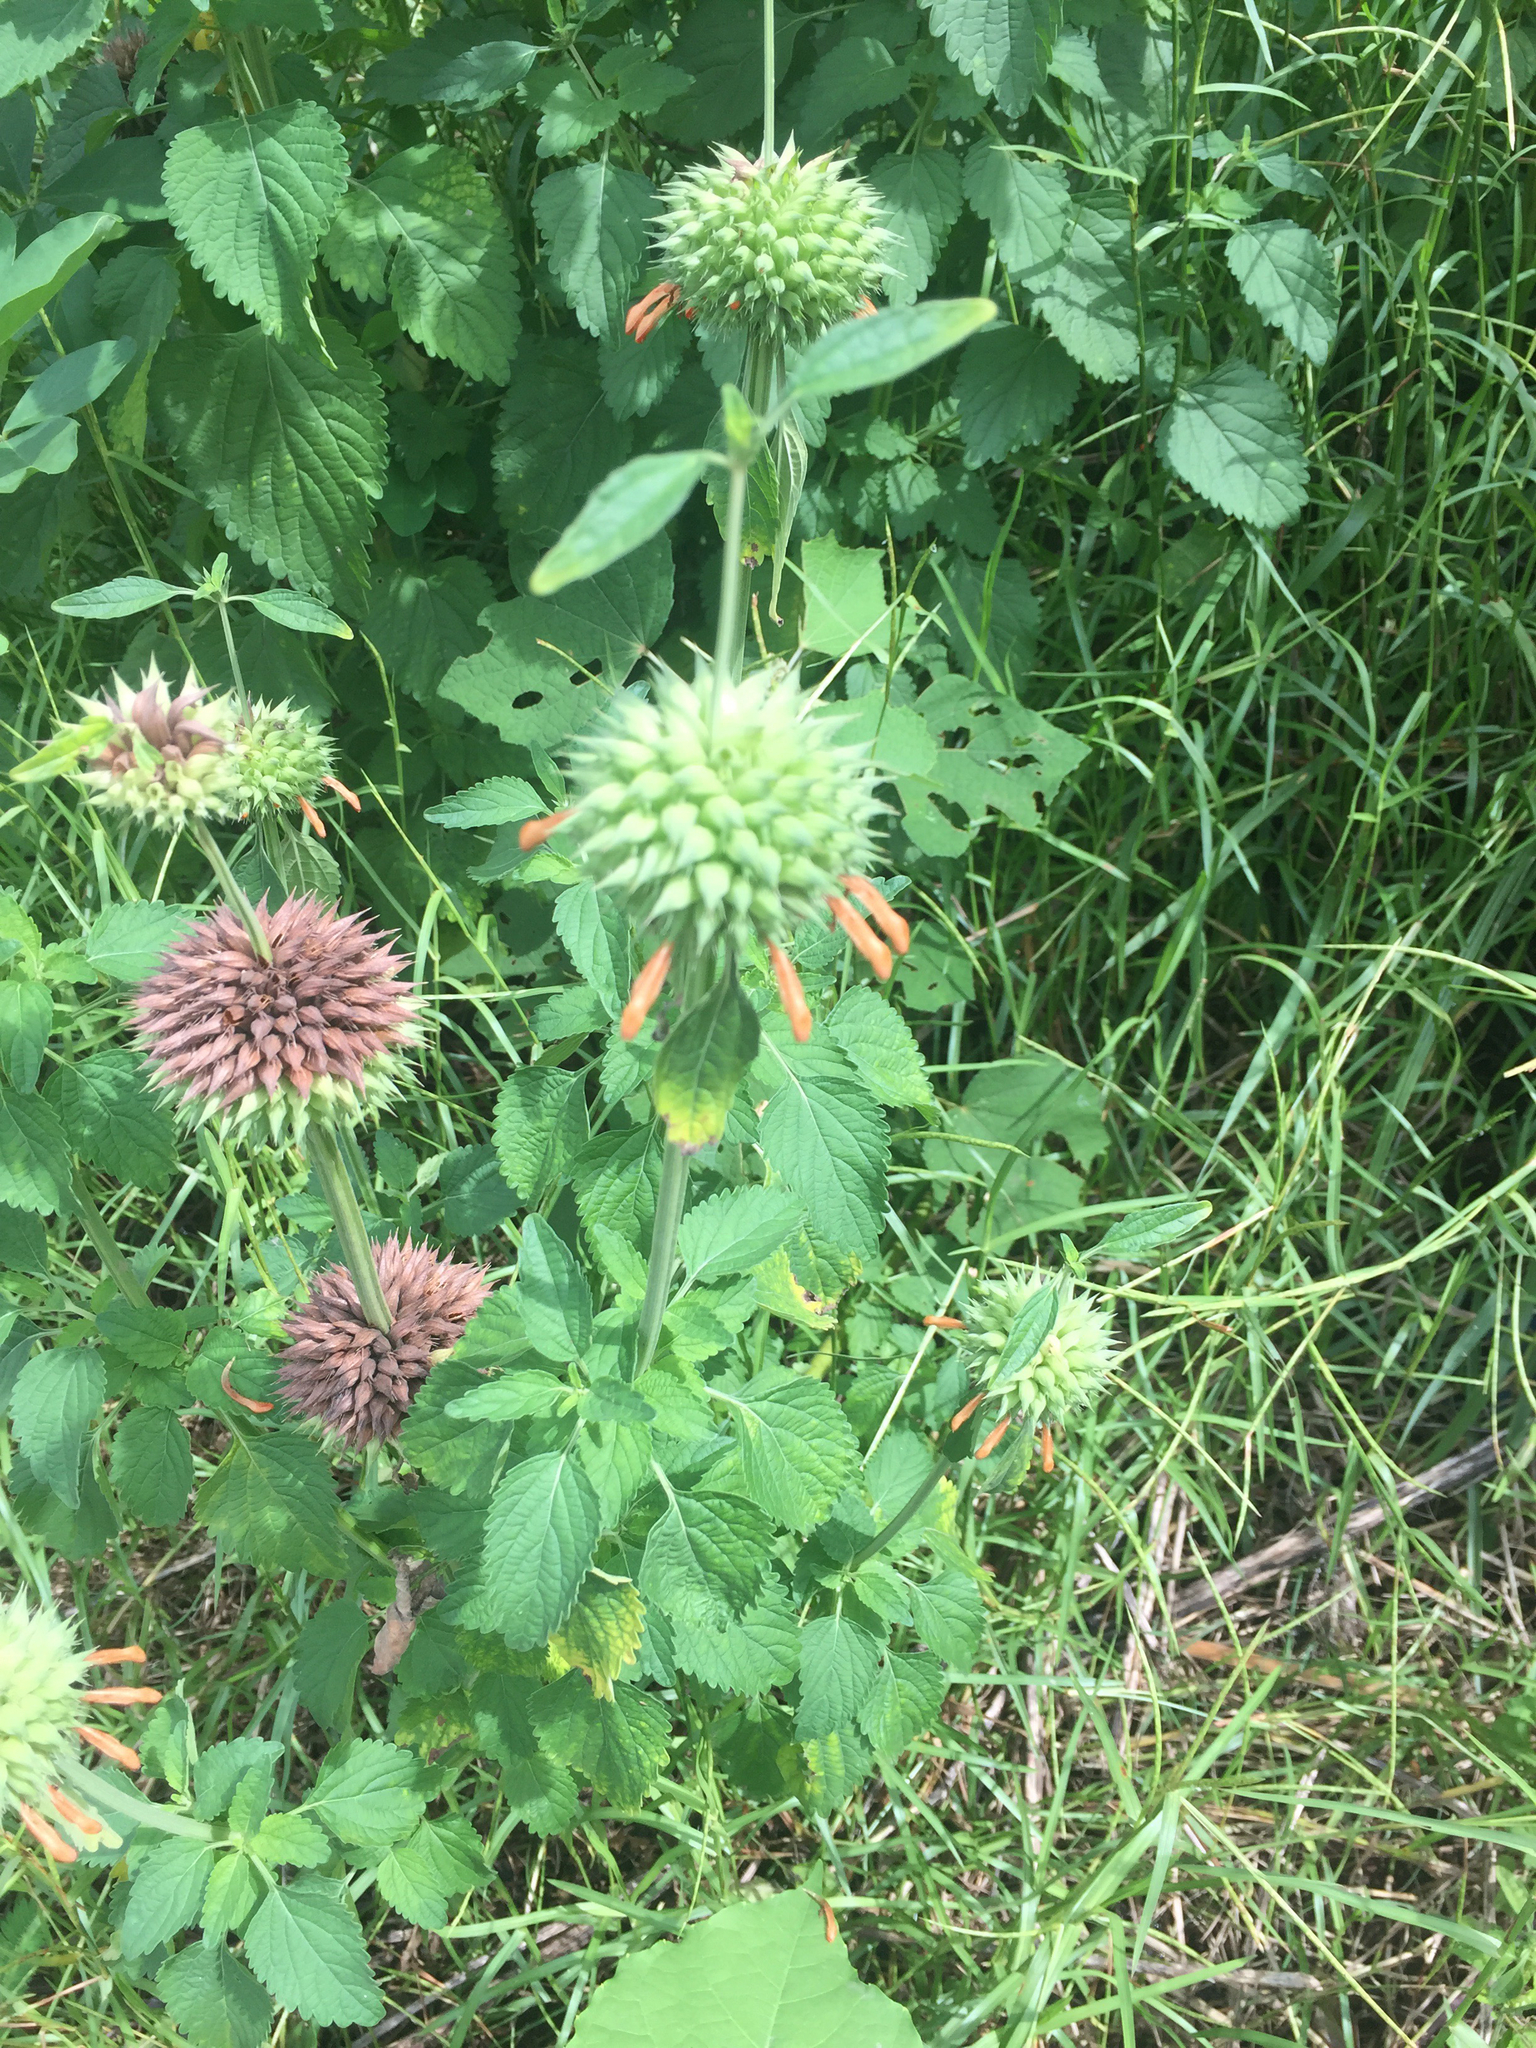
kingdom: Plantae
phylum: Tracheophyta
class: Magnoliopsida
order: Lamiales
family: Lamiaceae
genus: Leonotis
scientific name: Leonotis nepetifolia
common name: Christmas candlestick
